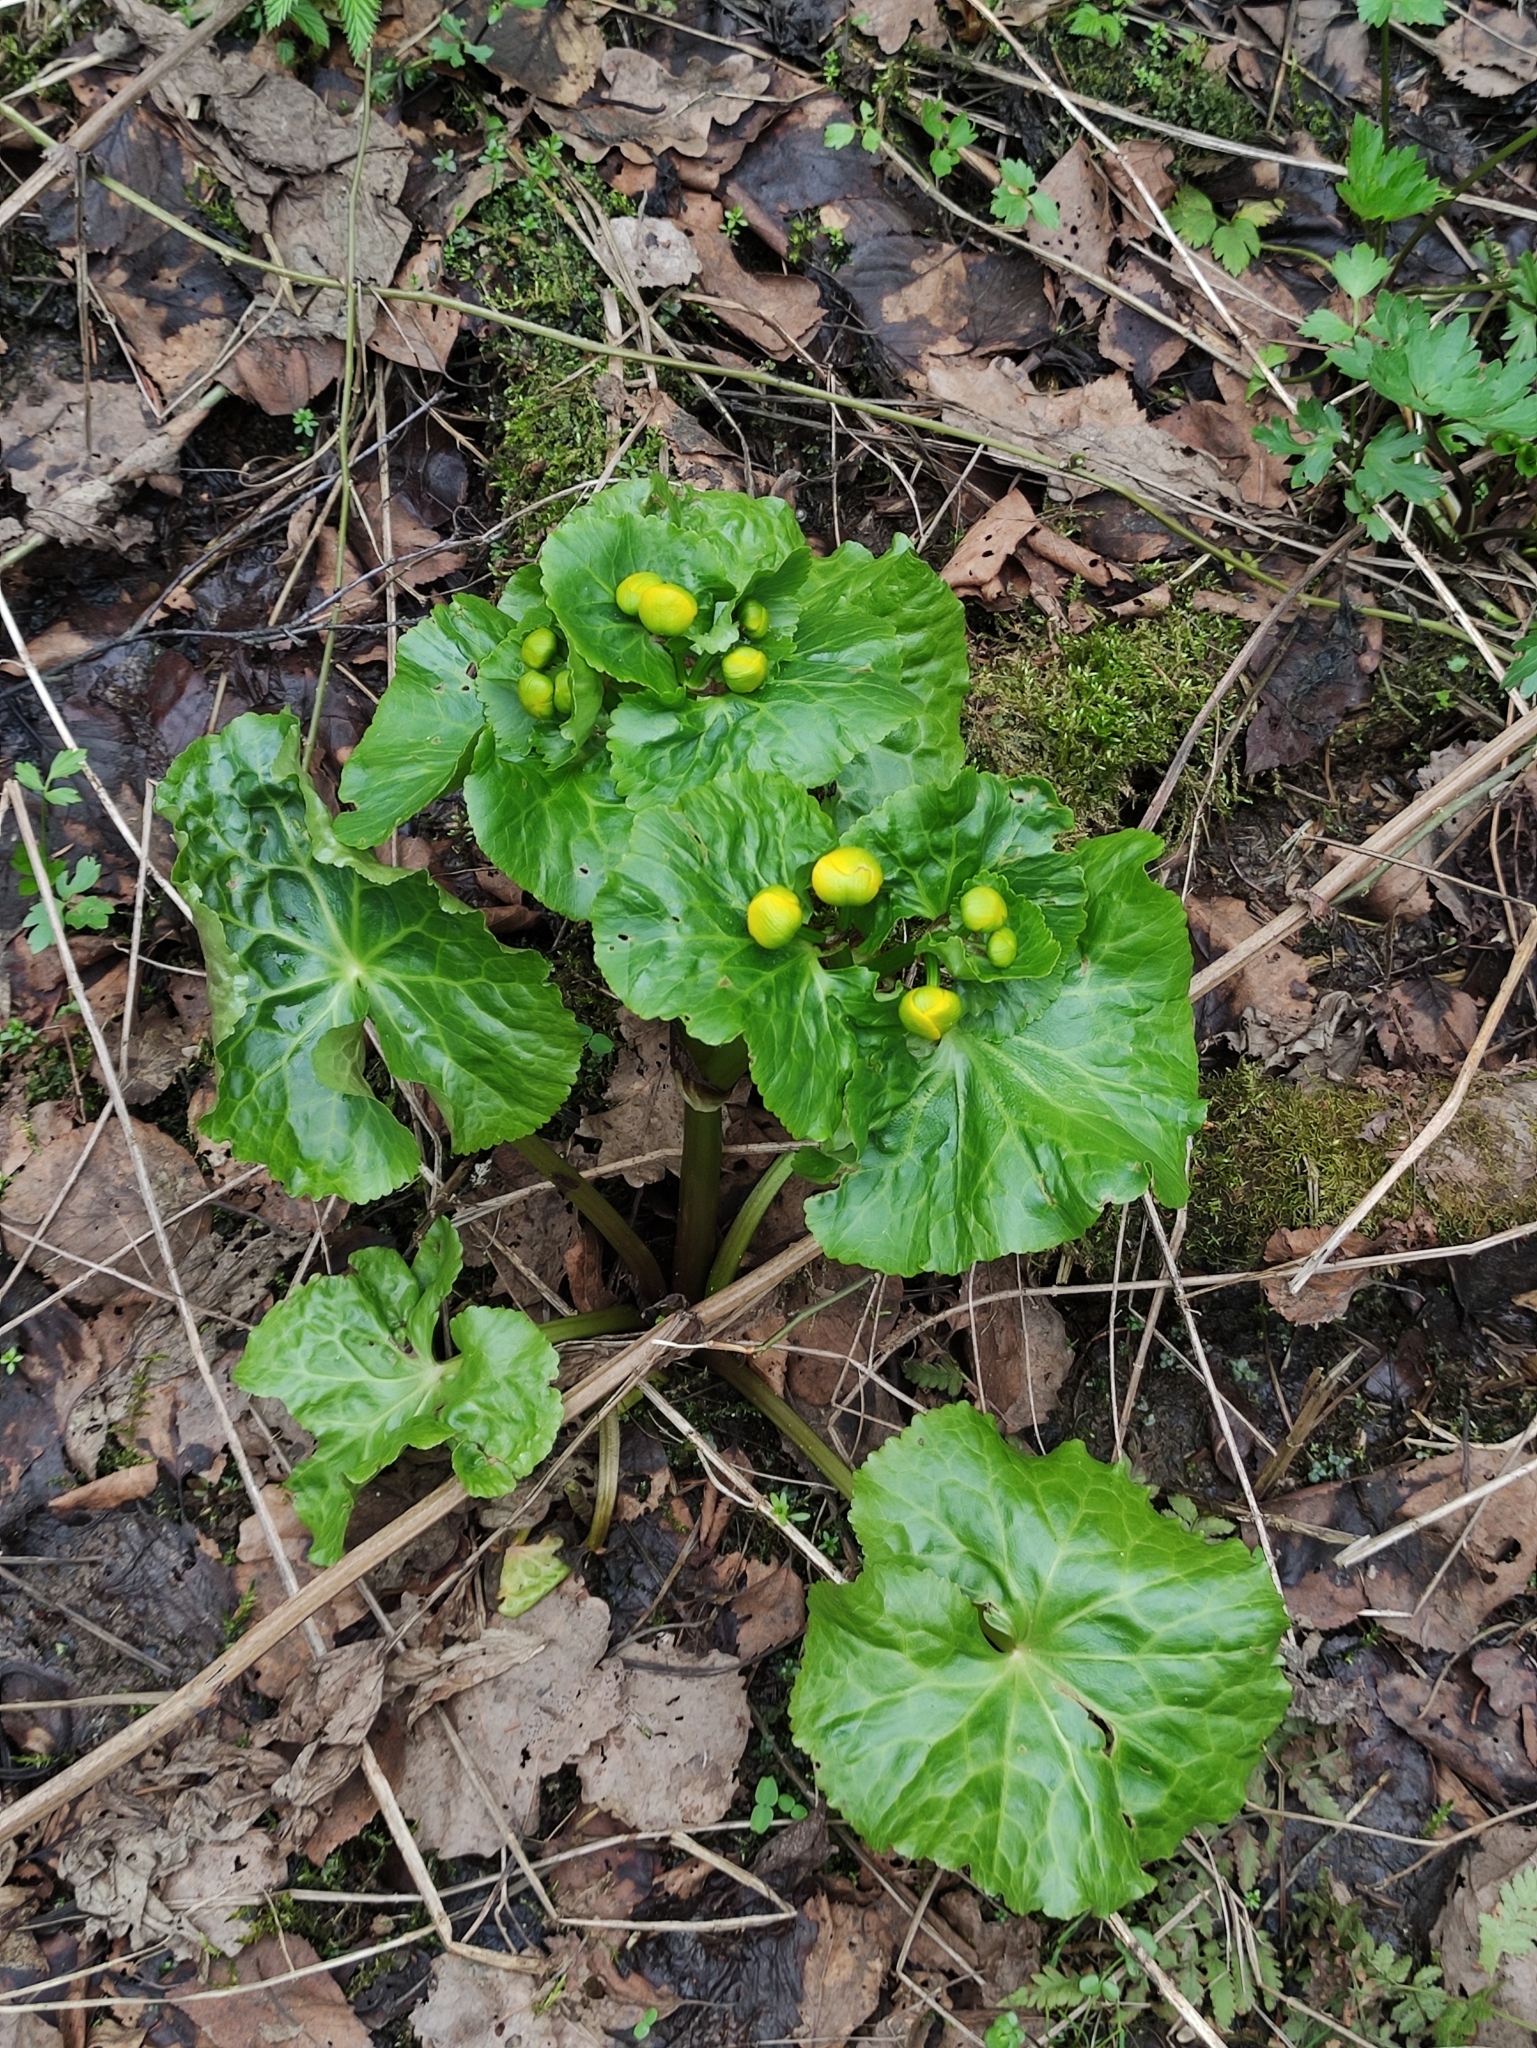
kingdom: Plantae
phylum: Tracheophyta
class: Magnoliopsida
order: Ranunculales
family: Ranunculaceae
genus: Caltha
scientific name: Caltha palustris
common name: Marsh marigold
